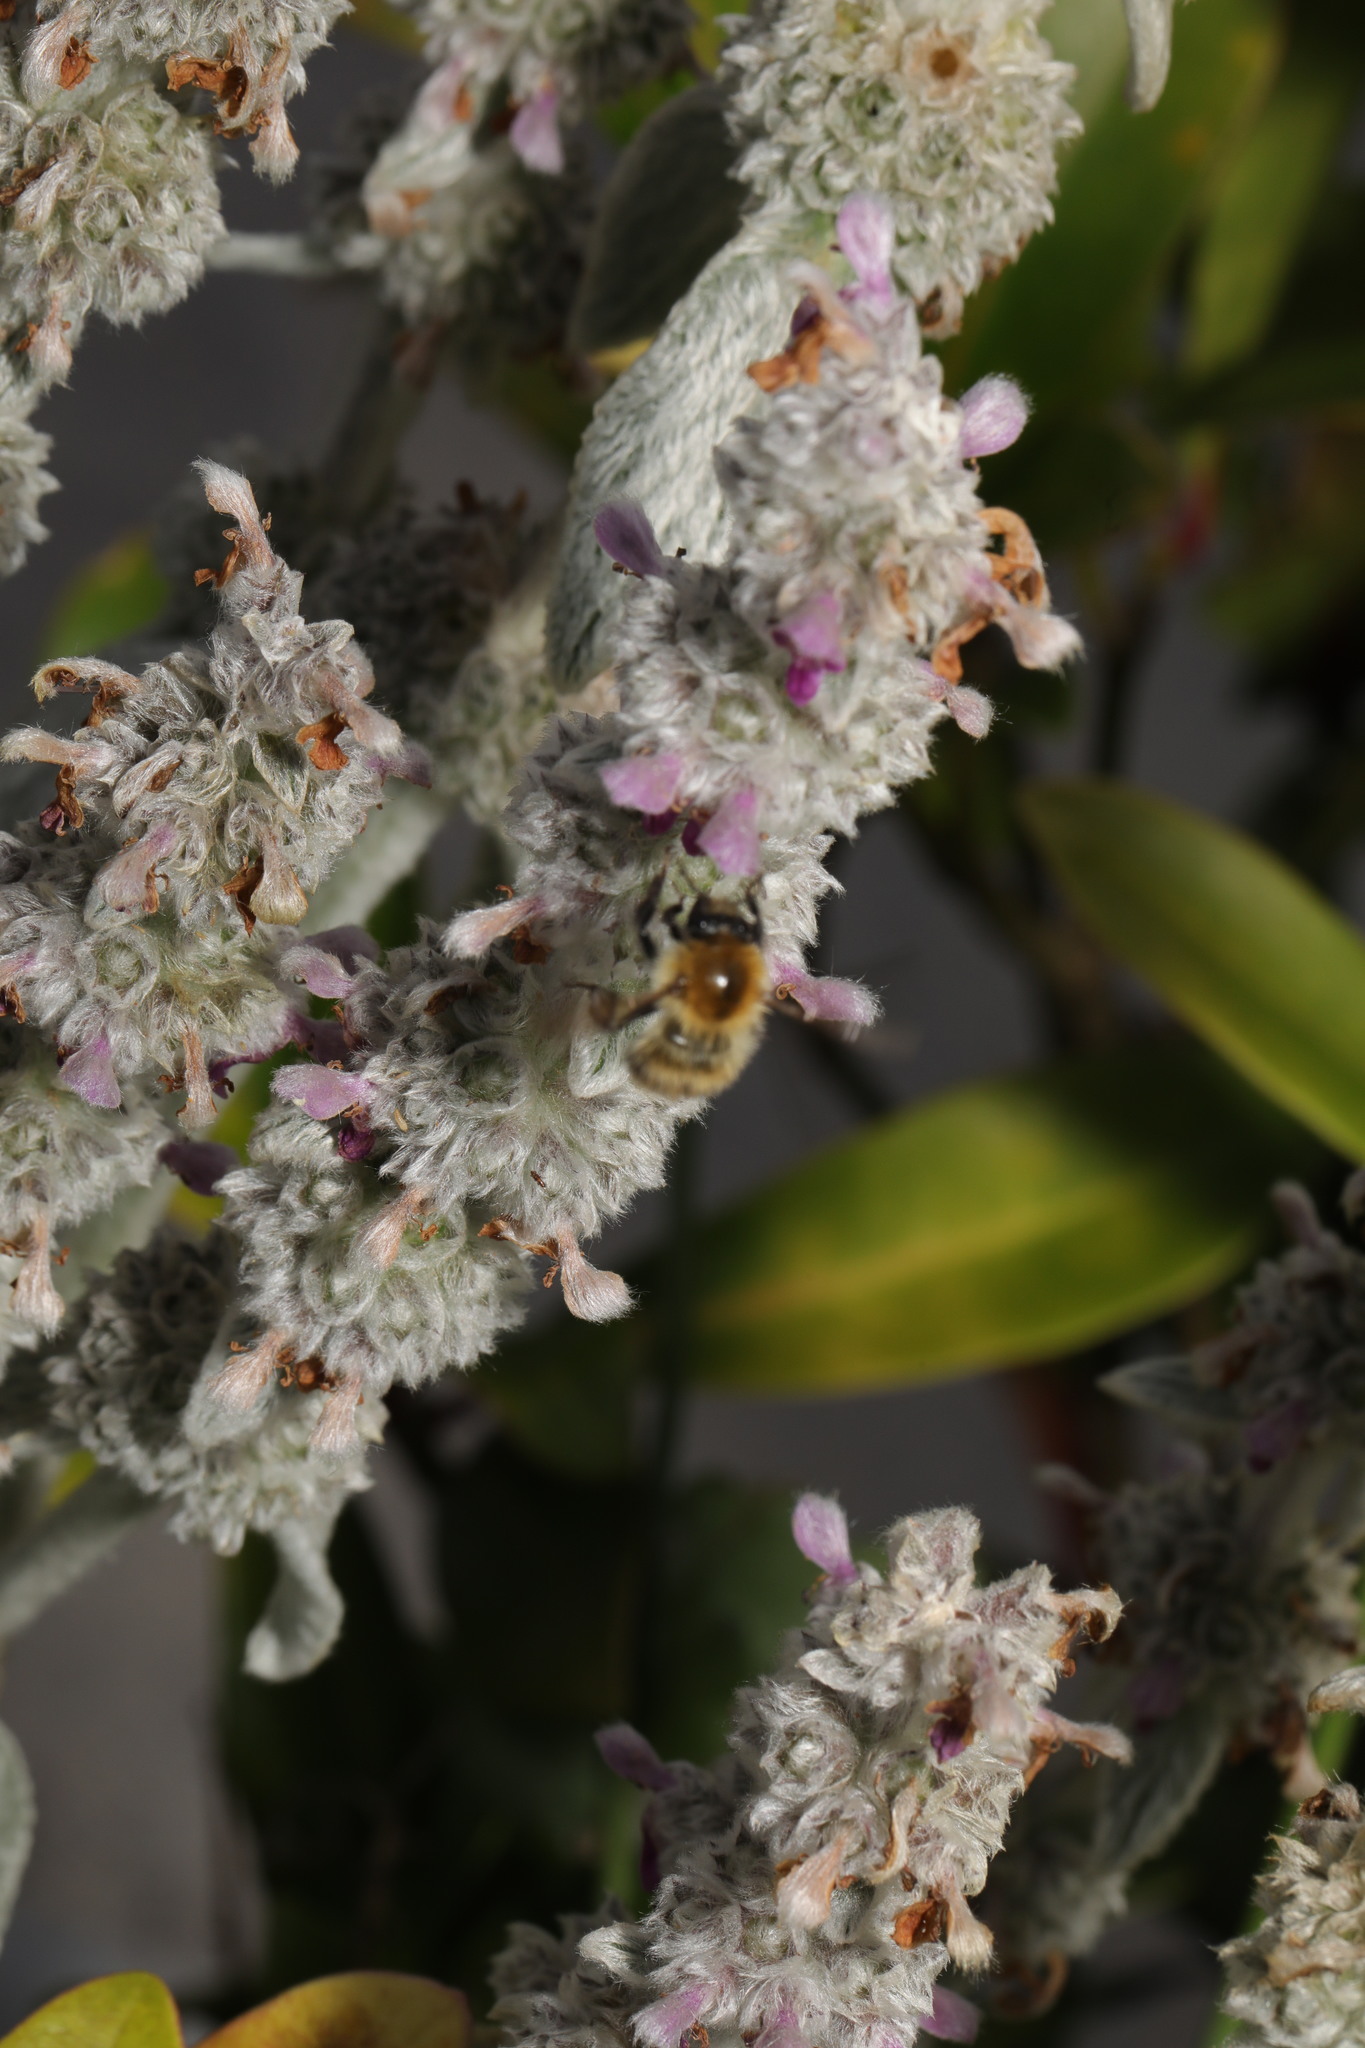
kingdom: Animalia
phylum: Arthropoda
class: Insecta
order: Hymenoptera
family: Apidae
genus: Bombus
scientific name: Bombus pascuorum
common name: Common carder bee
